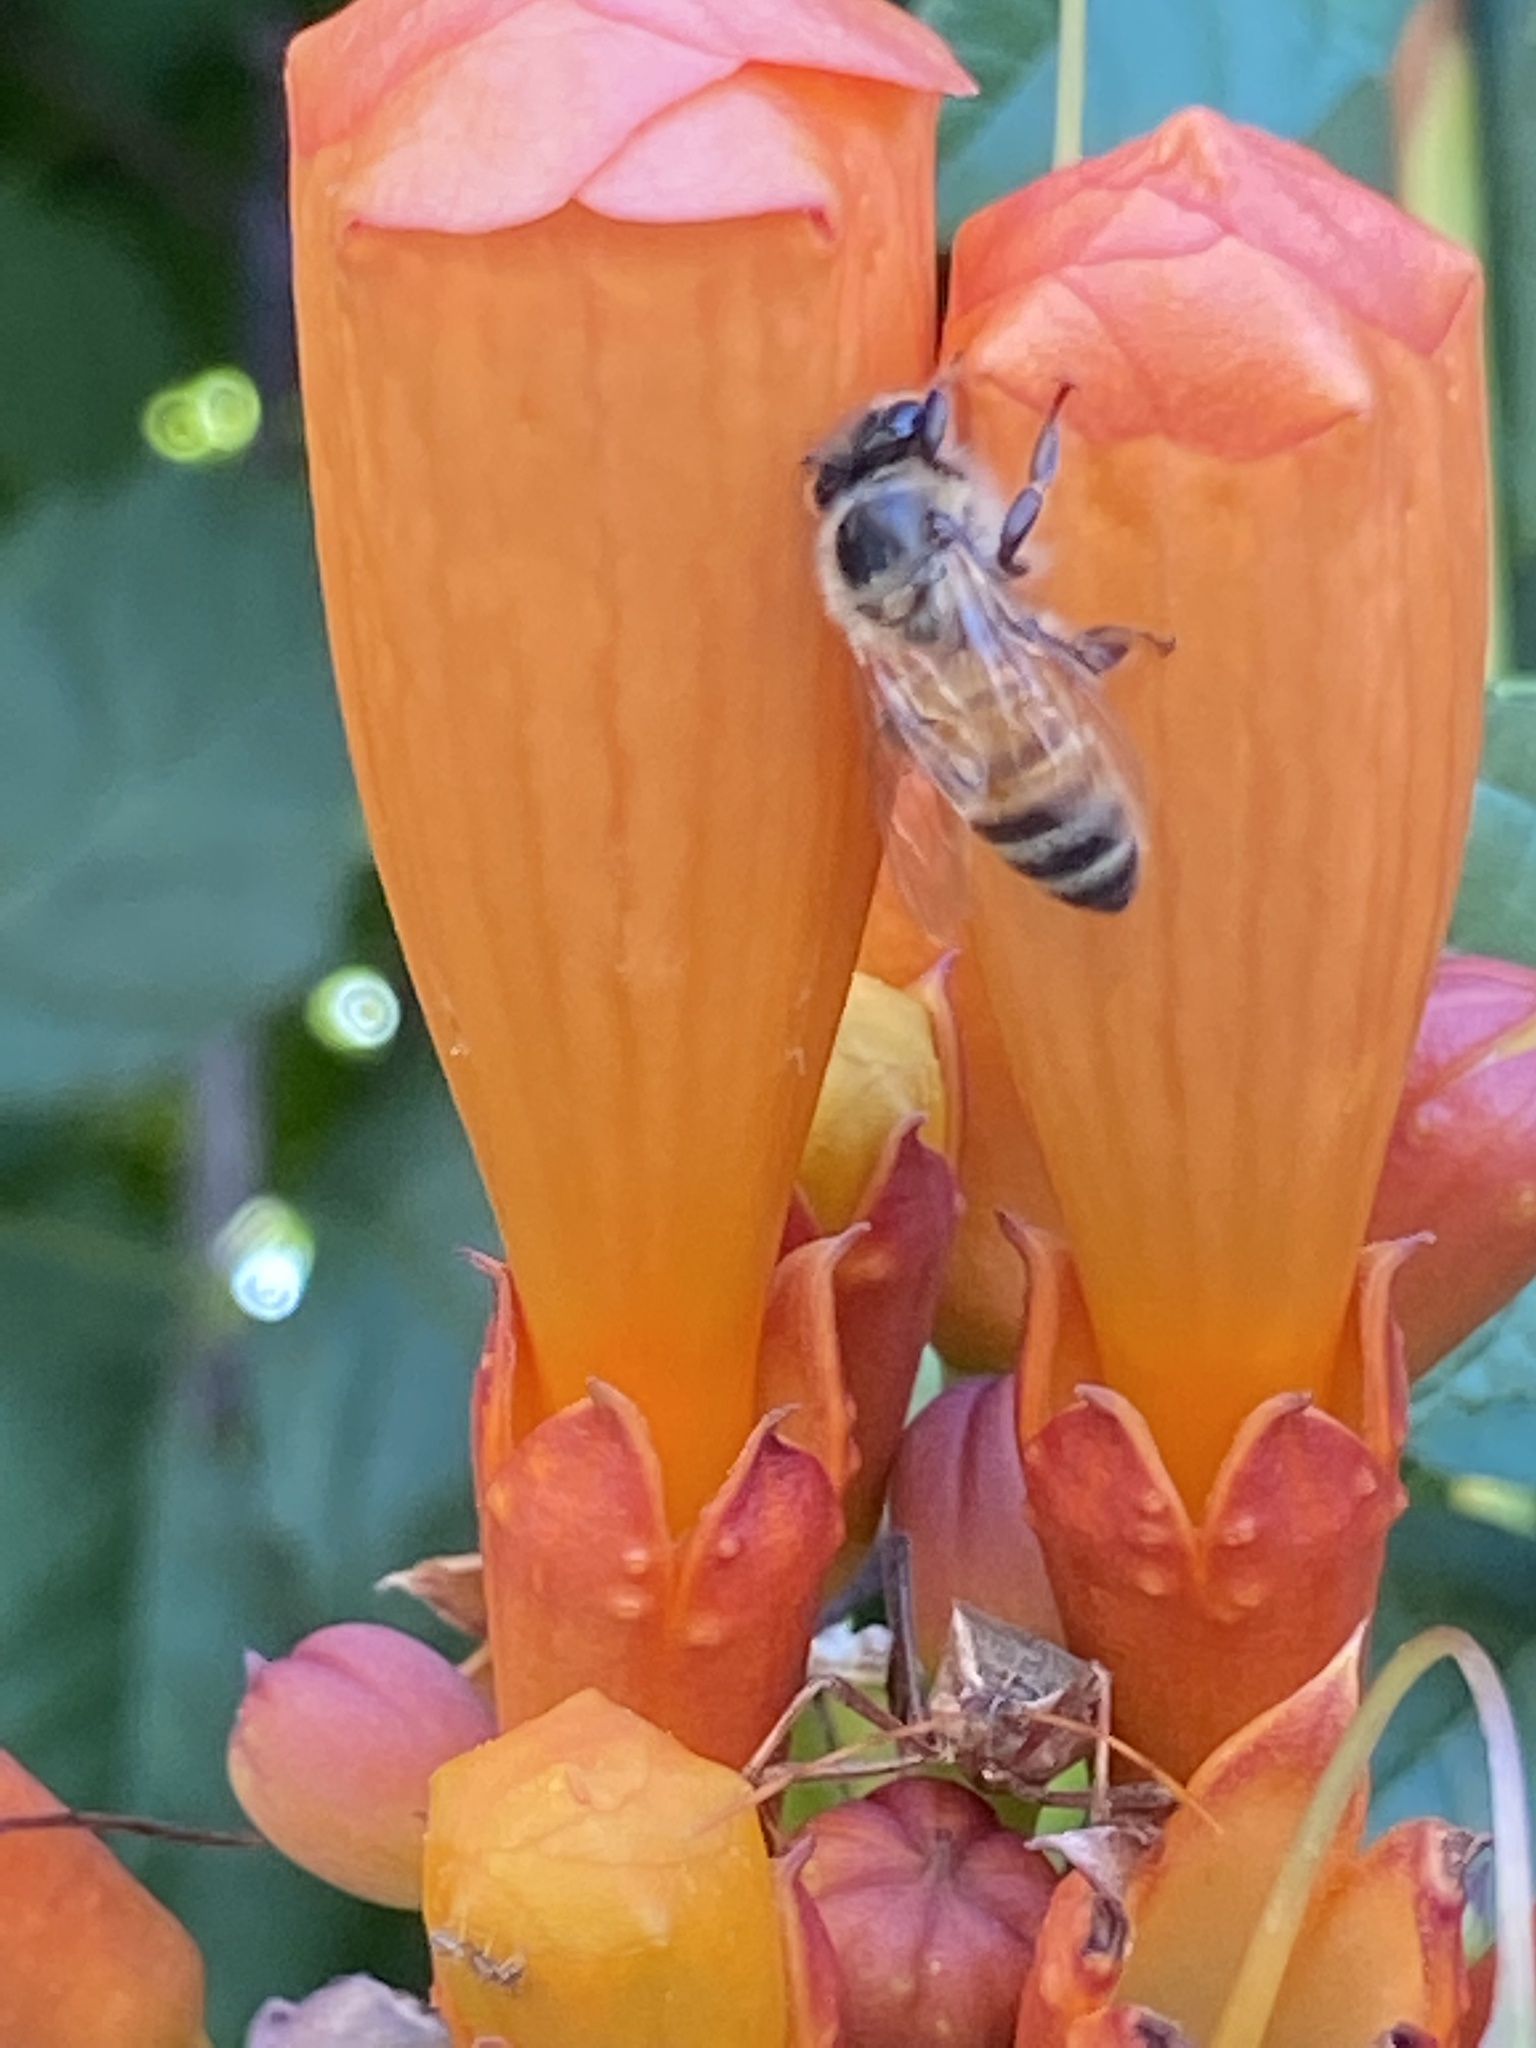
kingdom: Animalia
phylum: Arthropoda
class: Insecta
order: Hymenoptera
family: Apidae
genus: Apis
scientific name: Apis mellifera
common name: Honey bee
